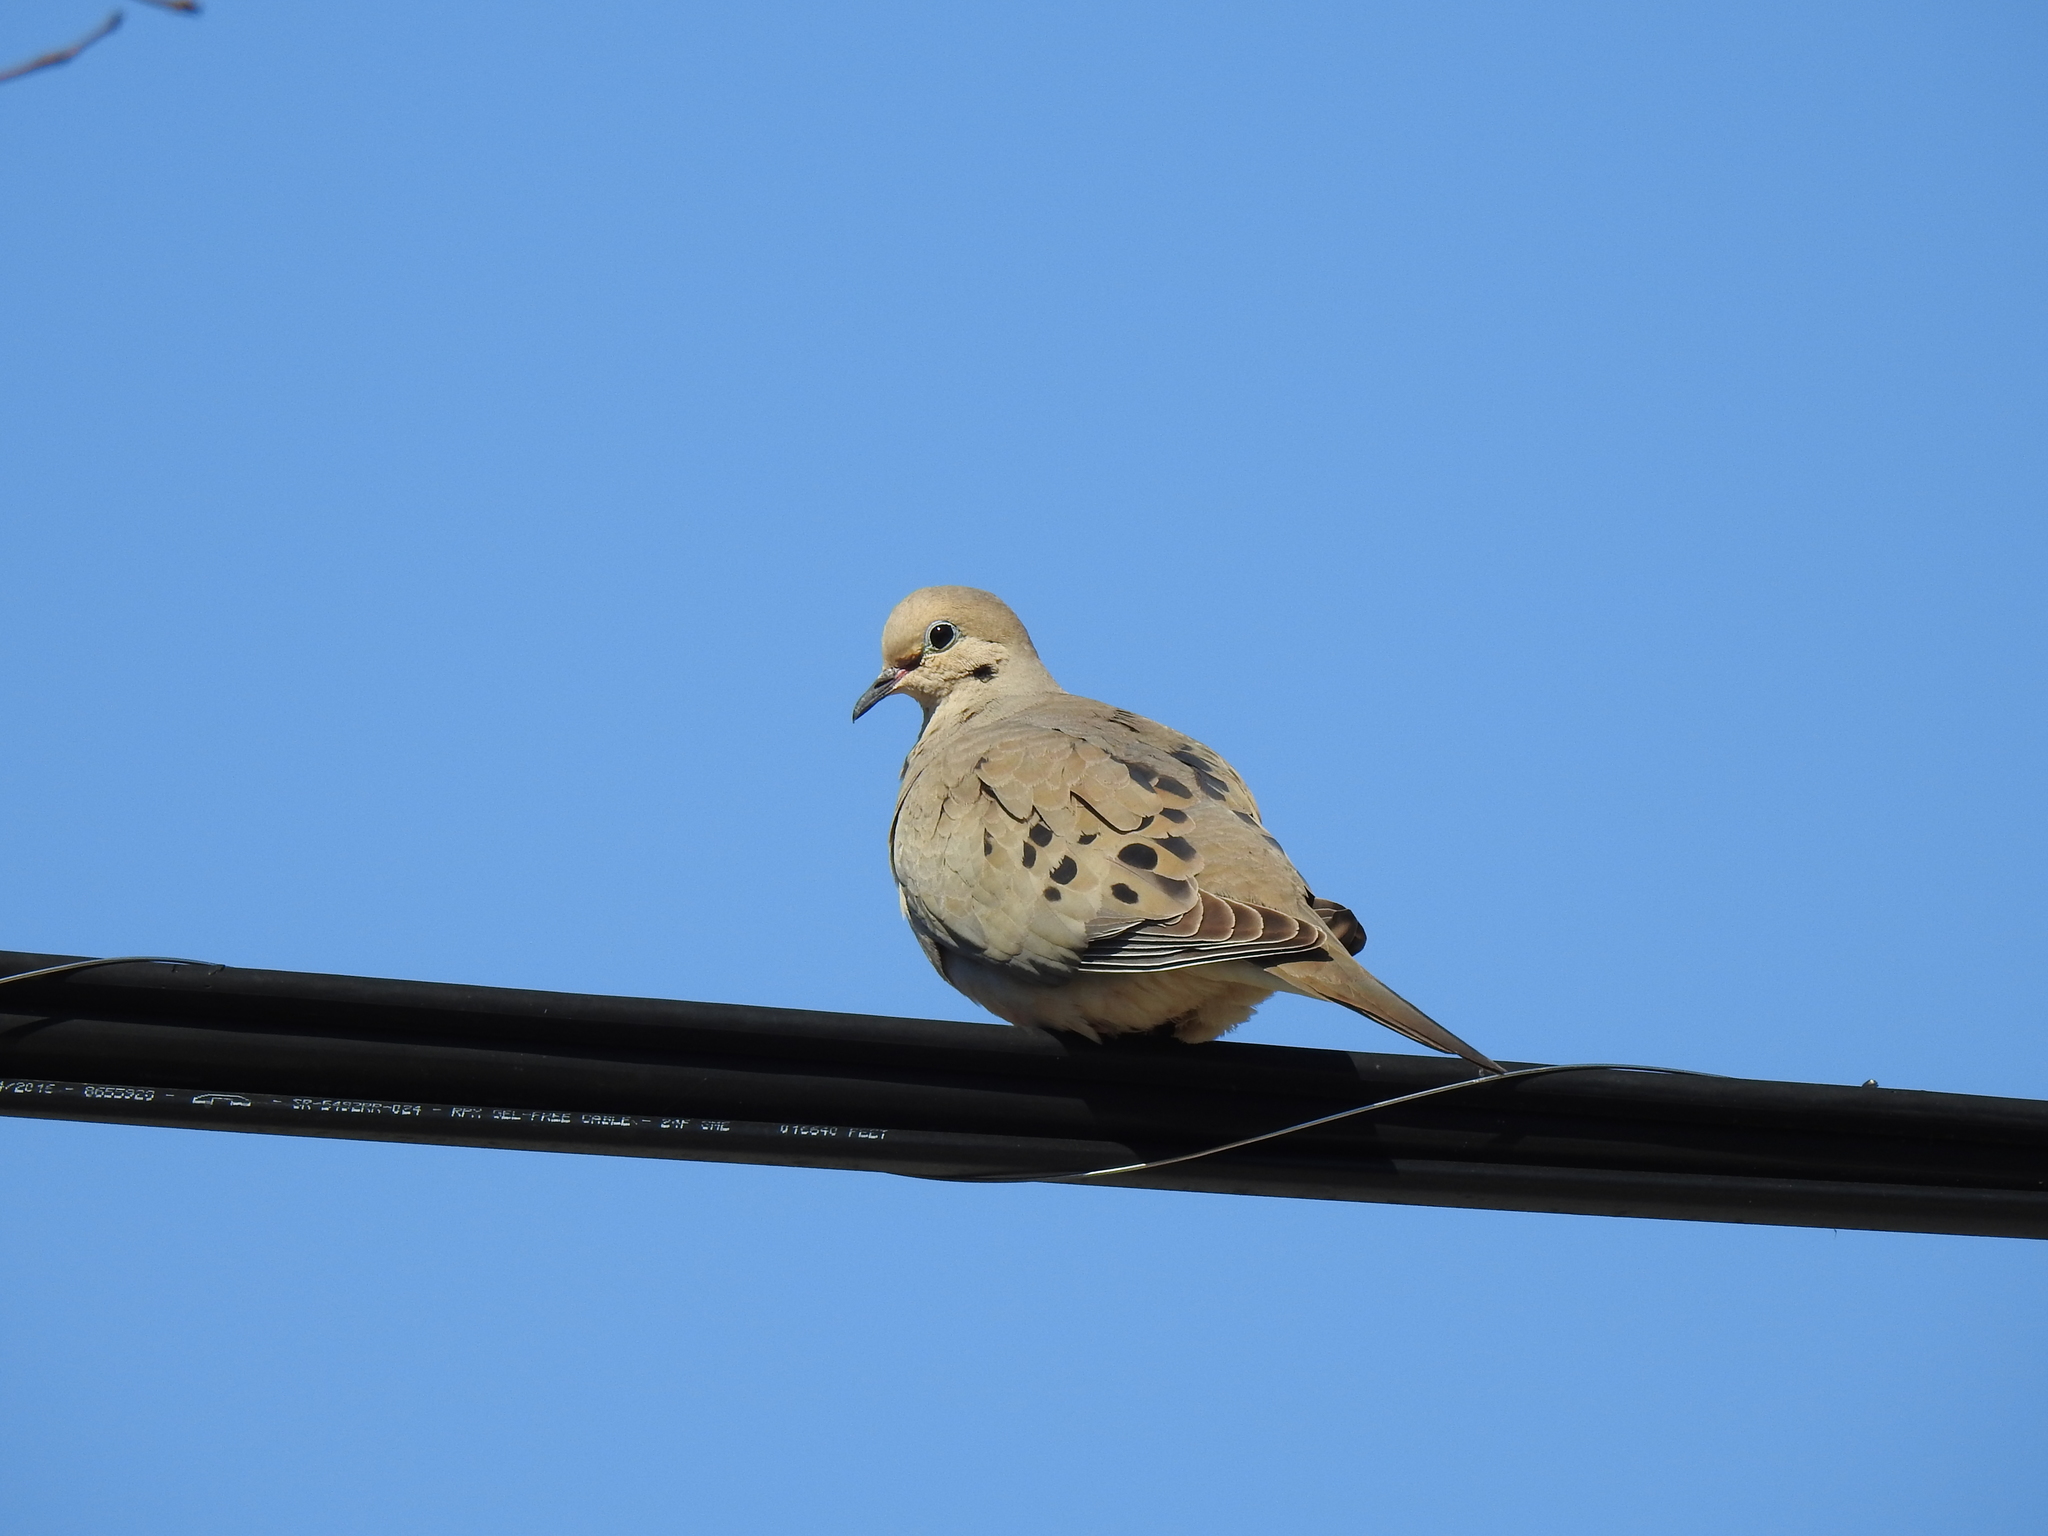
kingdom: Animalia
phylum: Chordata
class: Aves
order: Columbiformes
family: Columbidae
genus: Zenaida
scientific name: Zenaida macroura
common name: Mourning dove
